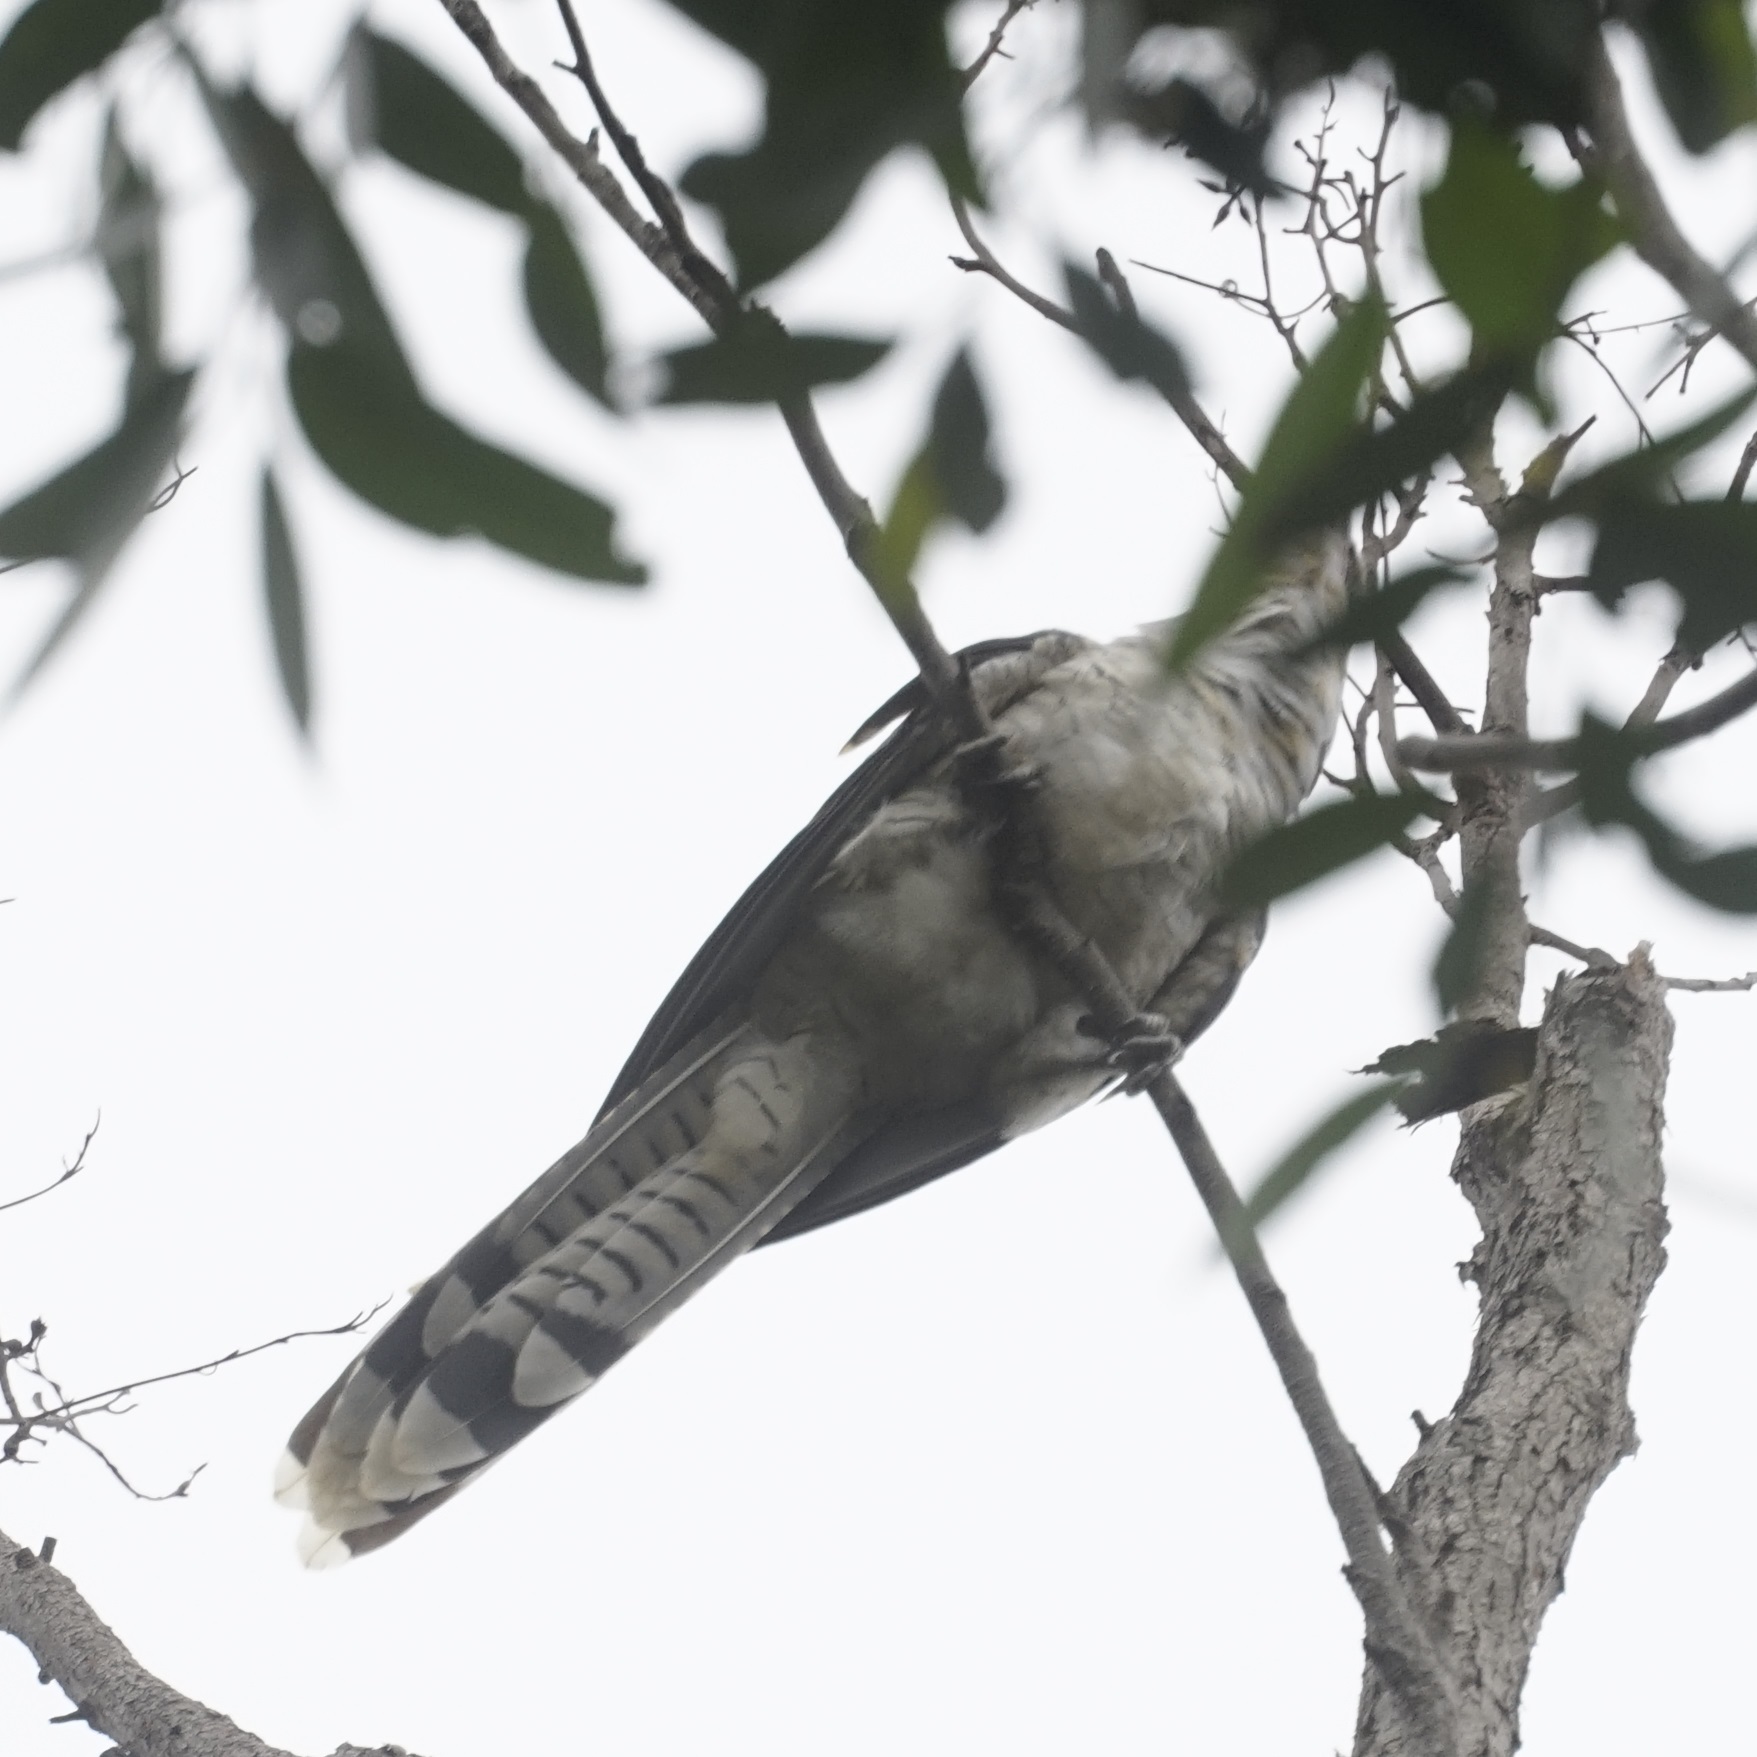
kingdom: Animalia
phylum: Chordata
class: Aves
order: Cuculiformes
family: Cuculidae
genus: Scythrops
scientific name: Scythrops novaehollandiae
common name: Channel-billed cuckoo
